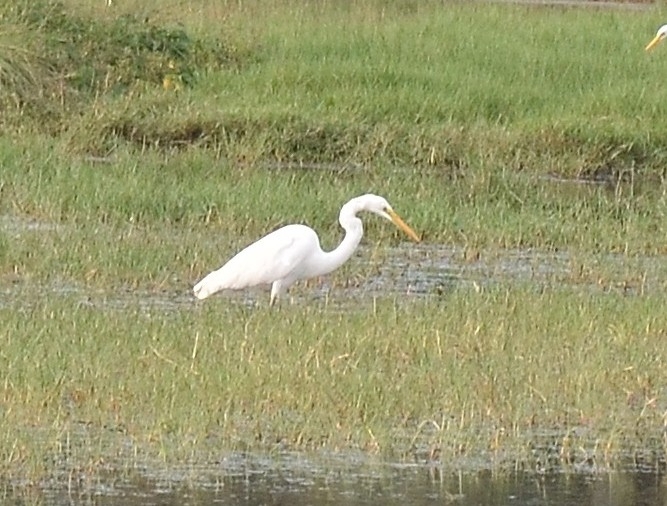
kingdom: Animalia
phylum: Chordata
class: Aves
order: Pelecaniformes
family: Ardeidae
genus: Ardea
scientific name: Ardea alba
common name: Great egret
